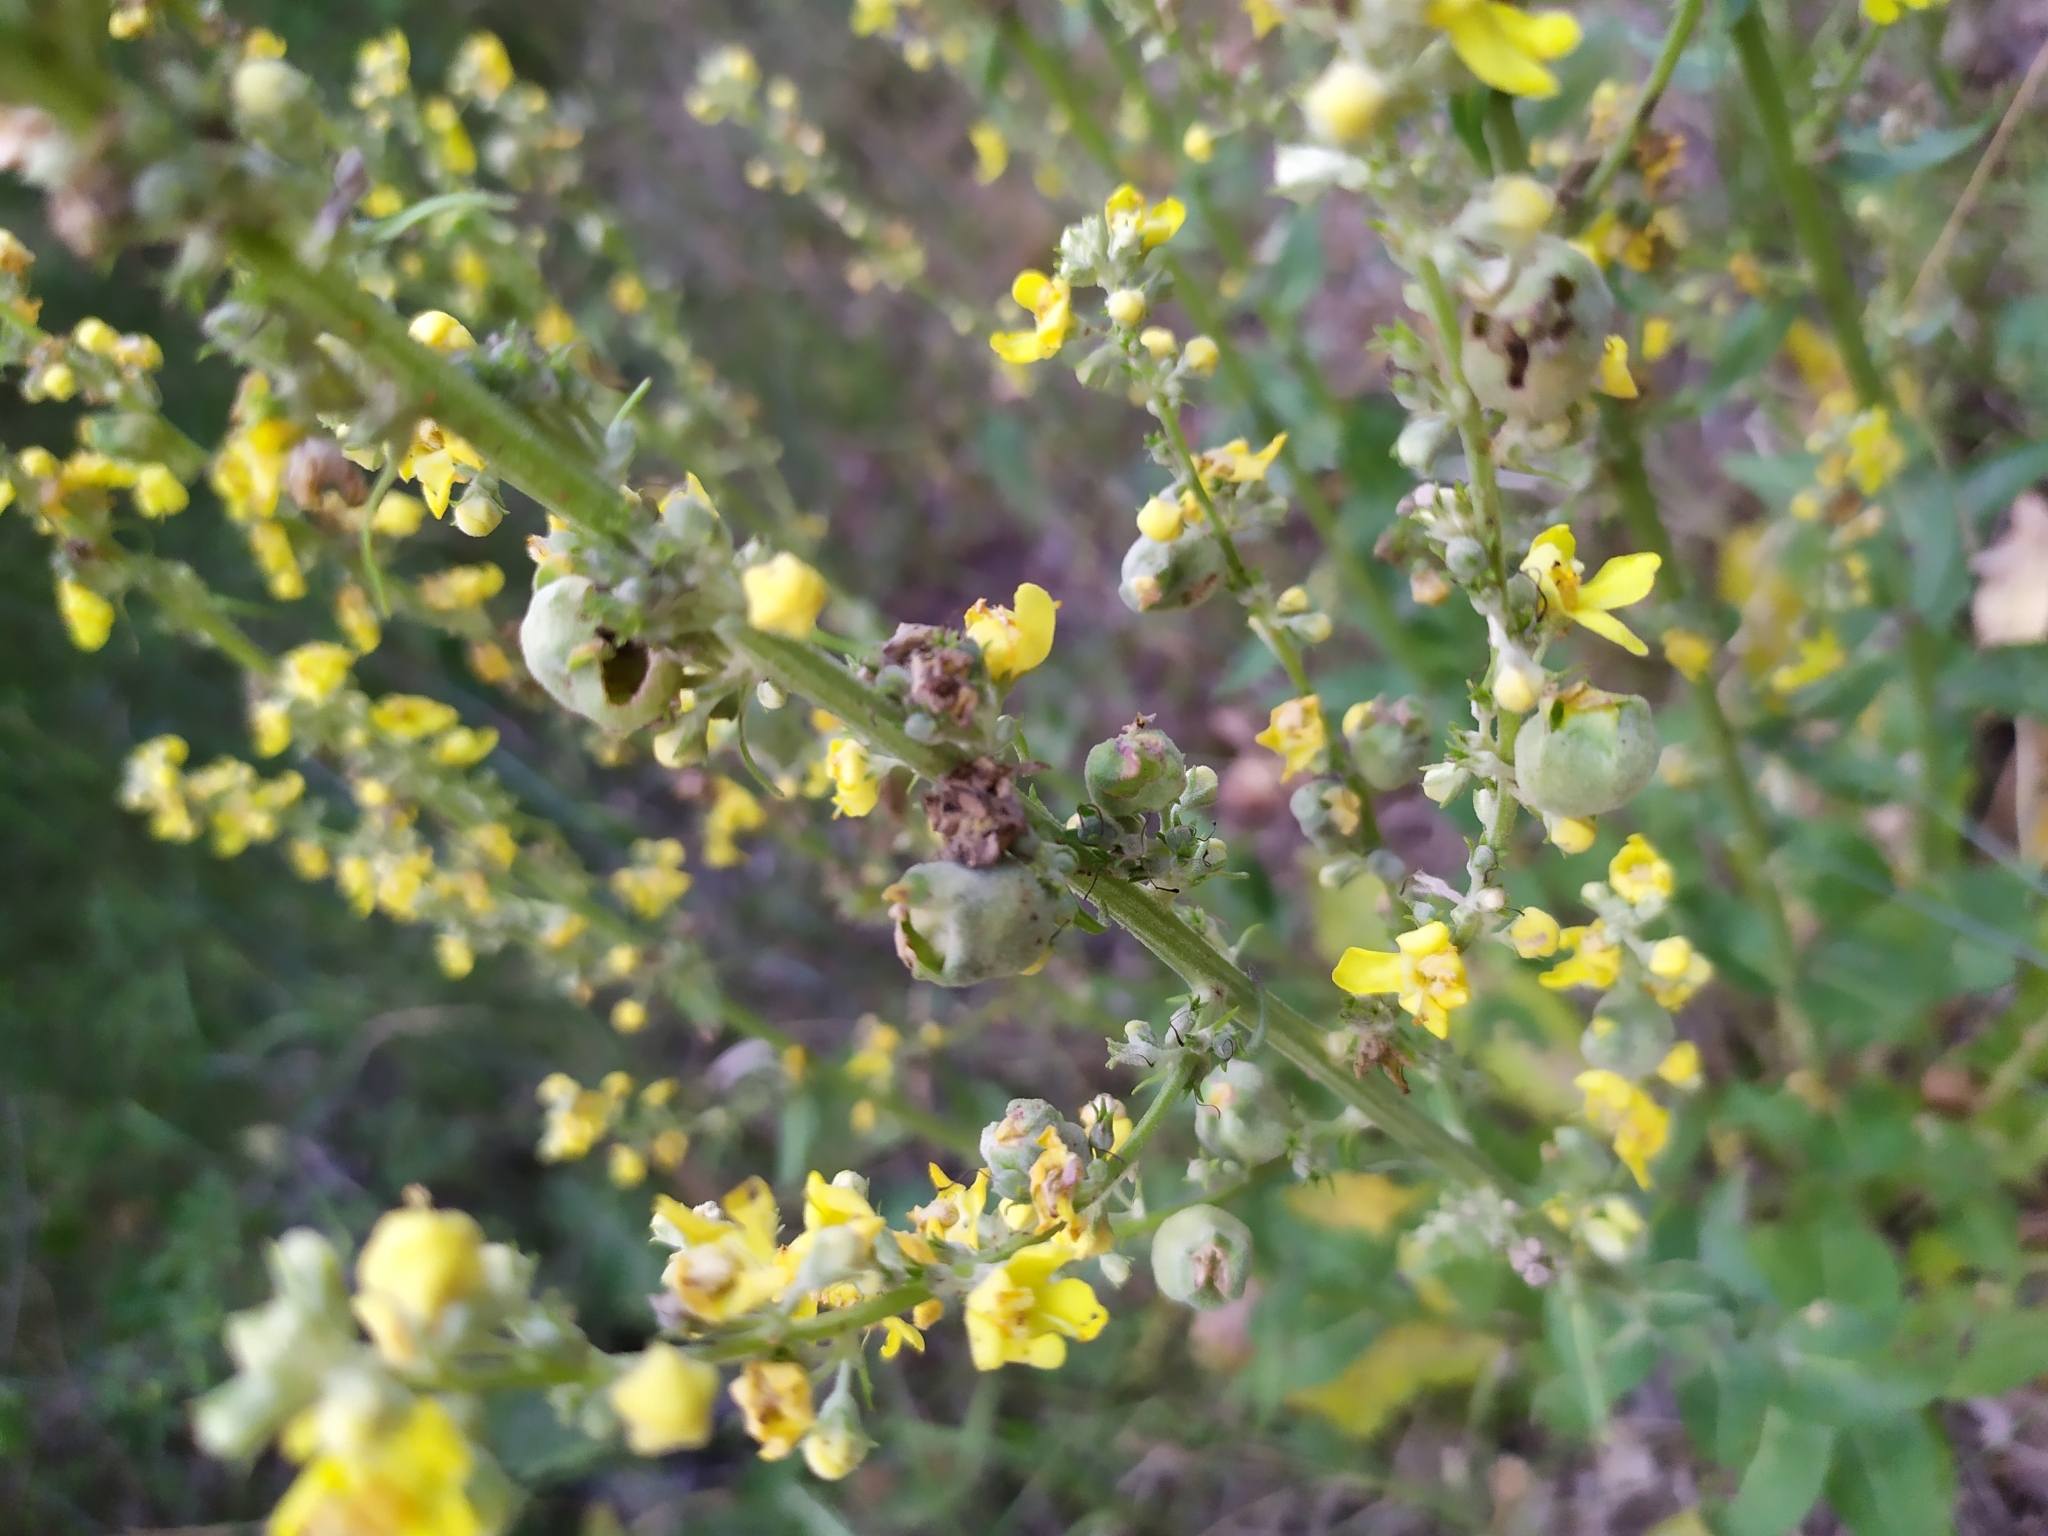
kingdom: Animalia
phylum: Arthropoda
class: Insecta
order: Diptera
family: Cecidomyiidae
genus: Asphondylia
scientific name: Asphondylia verbasci
